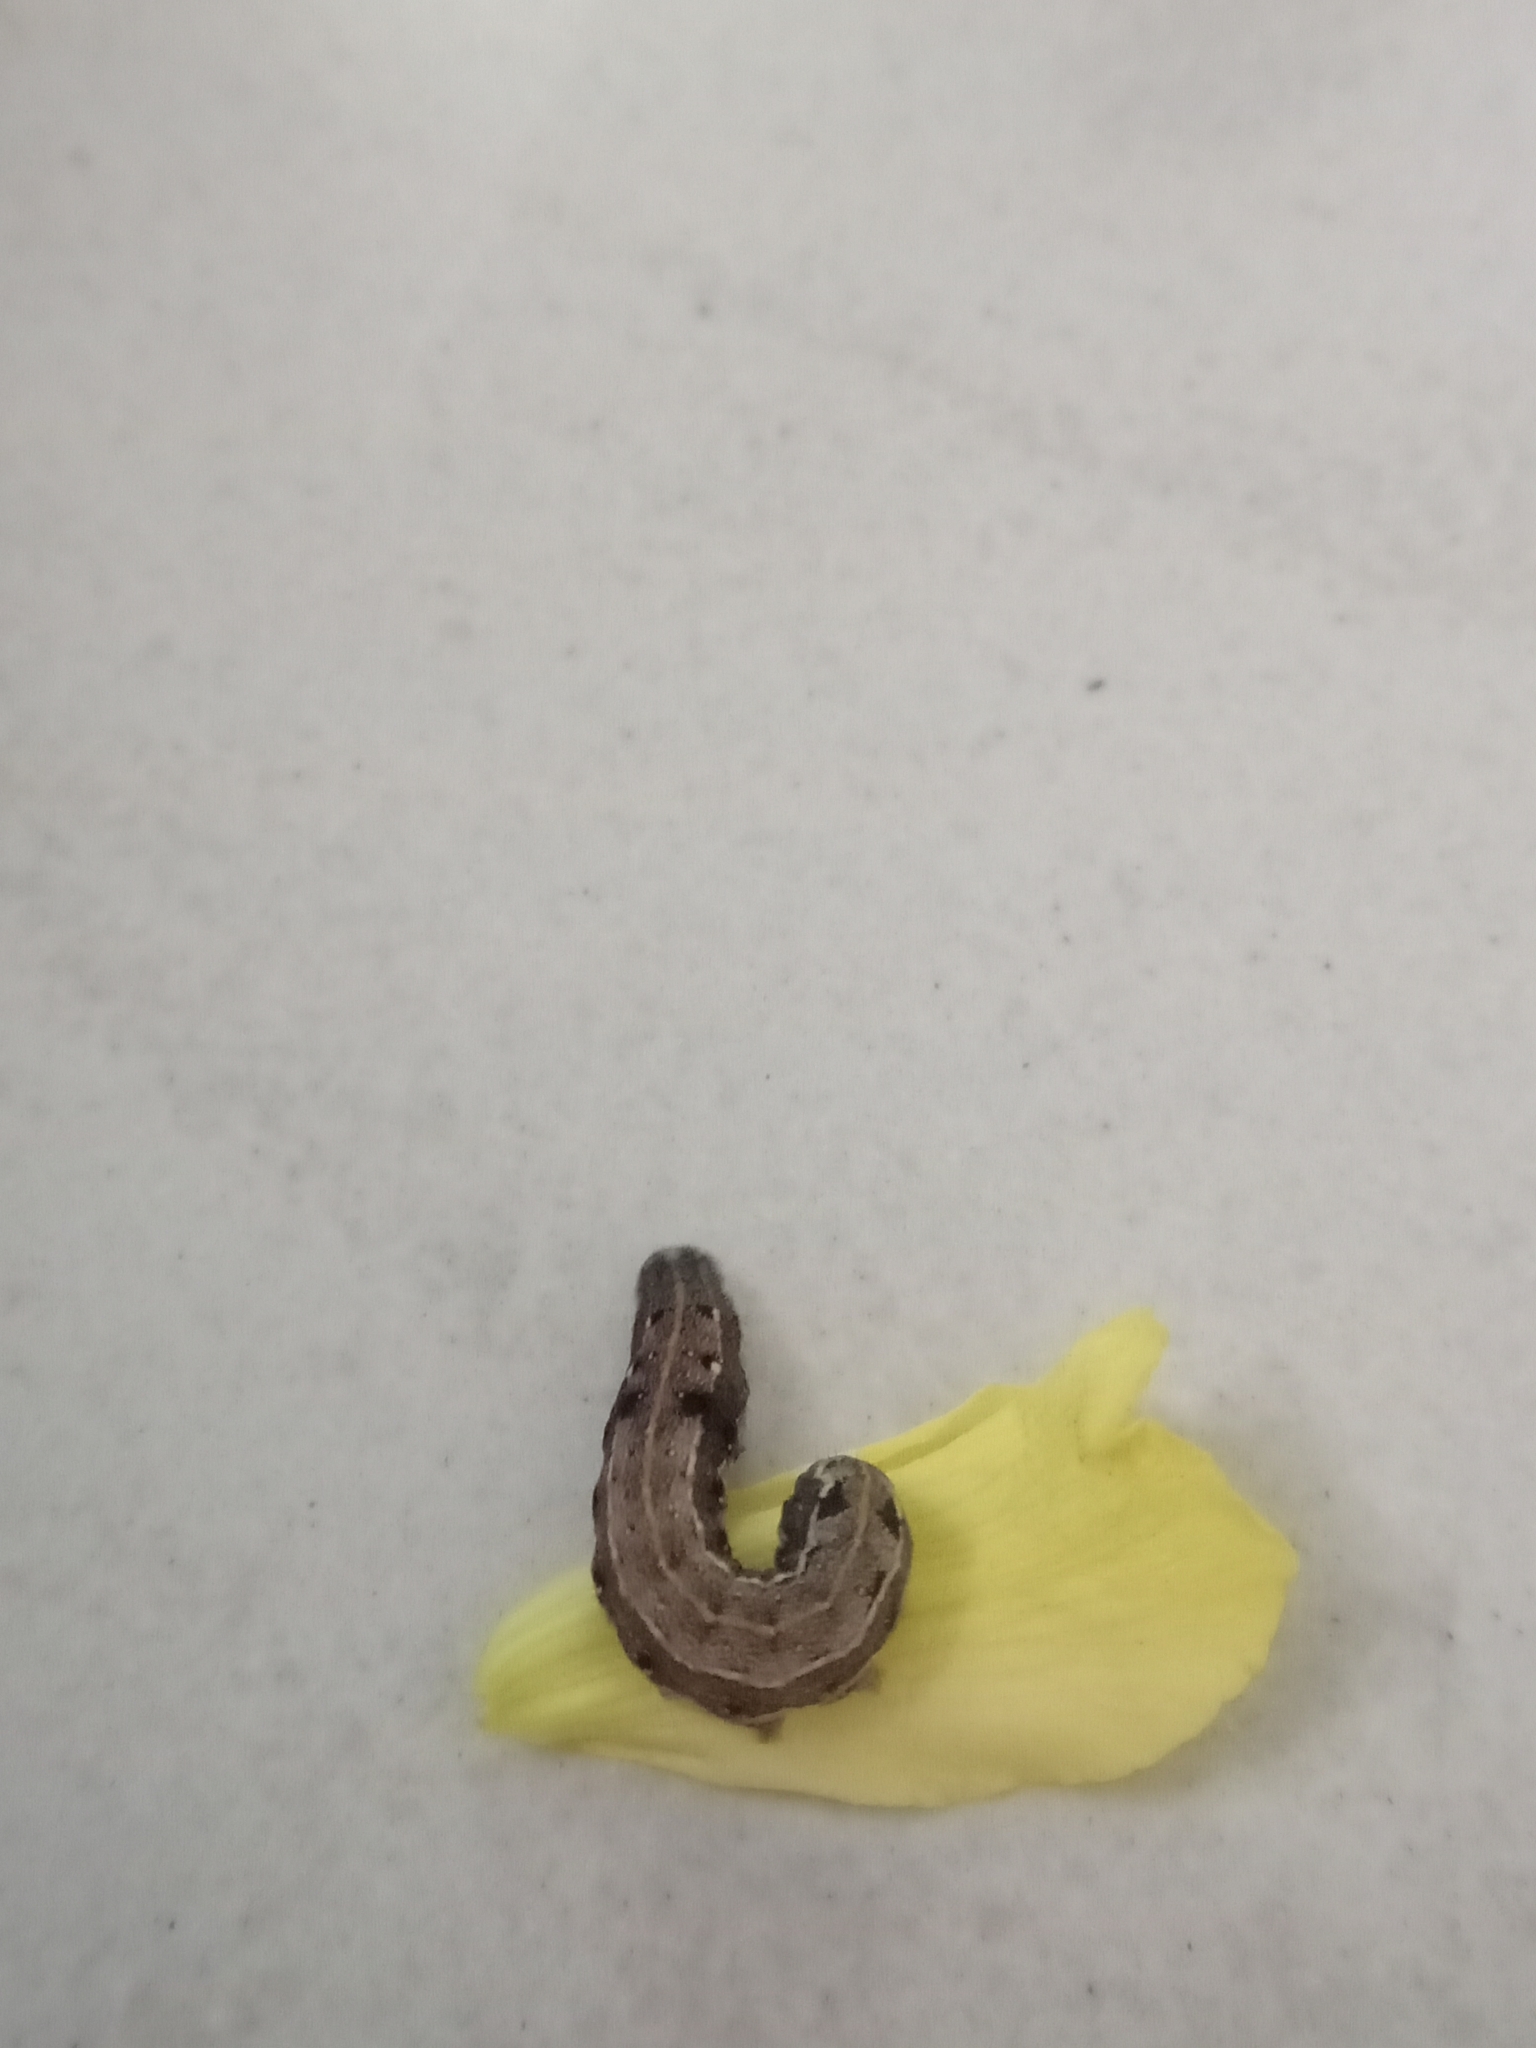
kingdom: Animalia
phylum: Arthropoda
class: Insecta
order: Lepidoptera
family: Noctuidae
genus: Spodoptera
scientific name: Spodoptera litura
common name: Asian cotton leafworm
